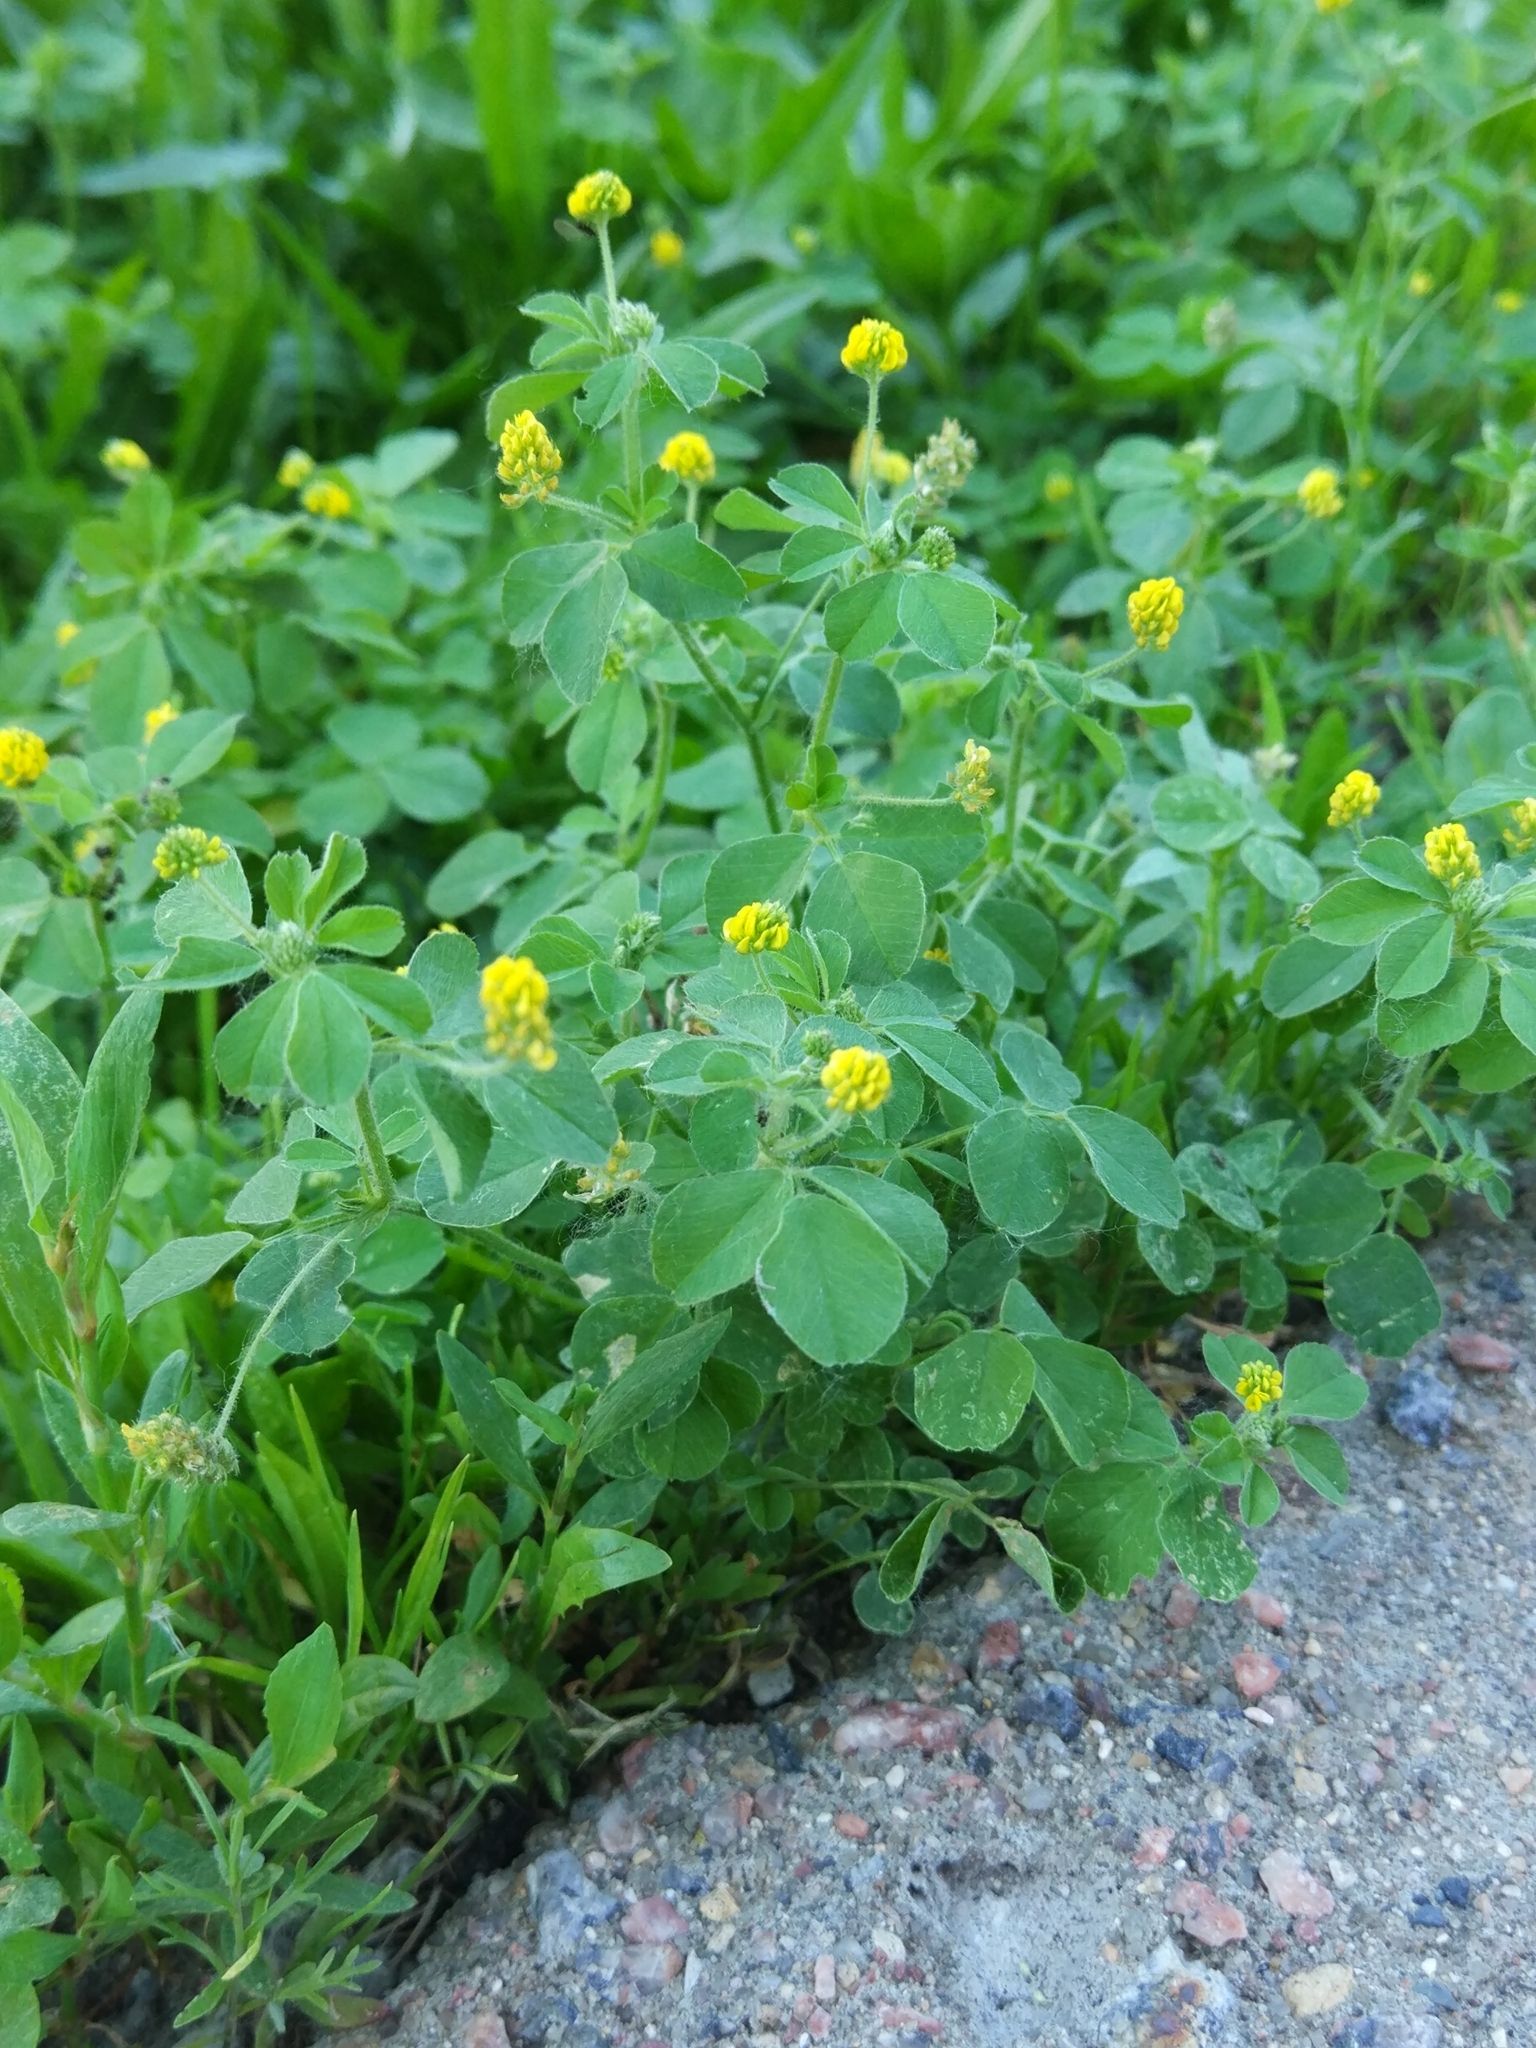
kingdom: Plantae
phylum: Tracheophyta
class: Magnoliopsida
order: Fabales
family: Fabaceae
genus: Medicago
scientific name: Medicago lupulina
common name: Black medick
